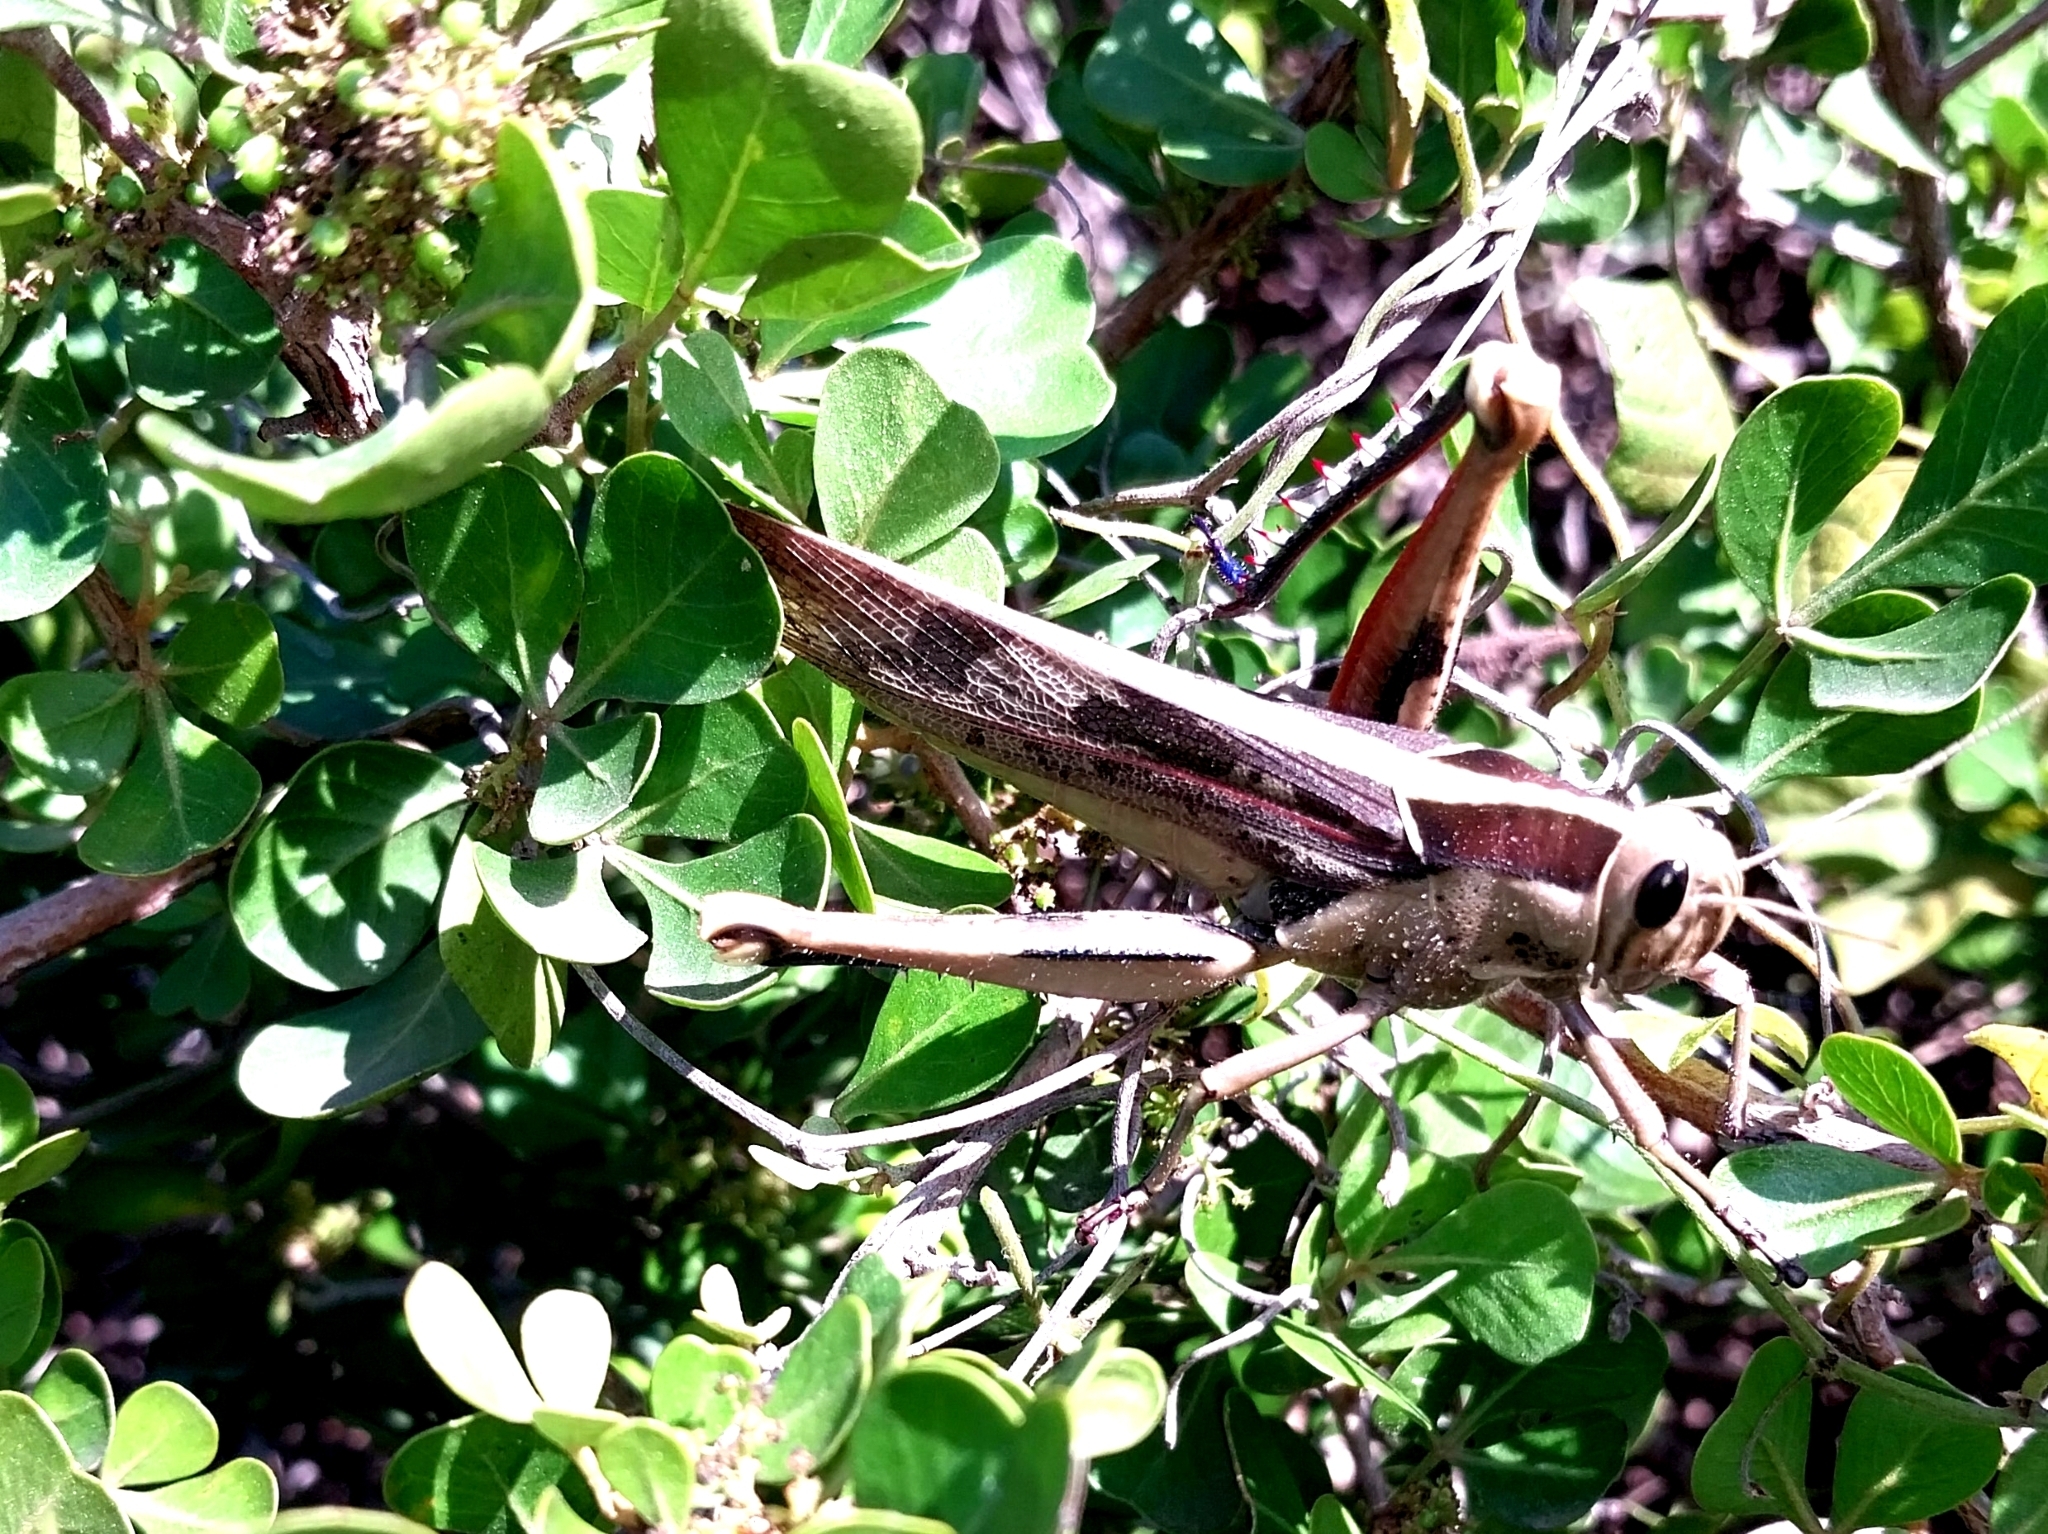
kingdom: Animalia
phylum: Arthropoda
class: Insecta
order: Orthoptera
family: Acrididae
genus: Acanthacris
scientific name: Acanthacris ruficornis
